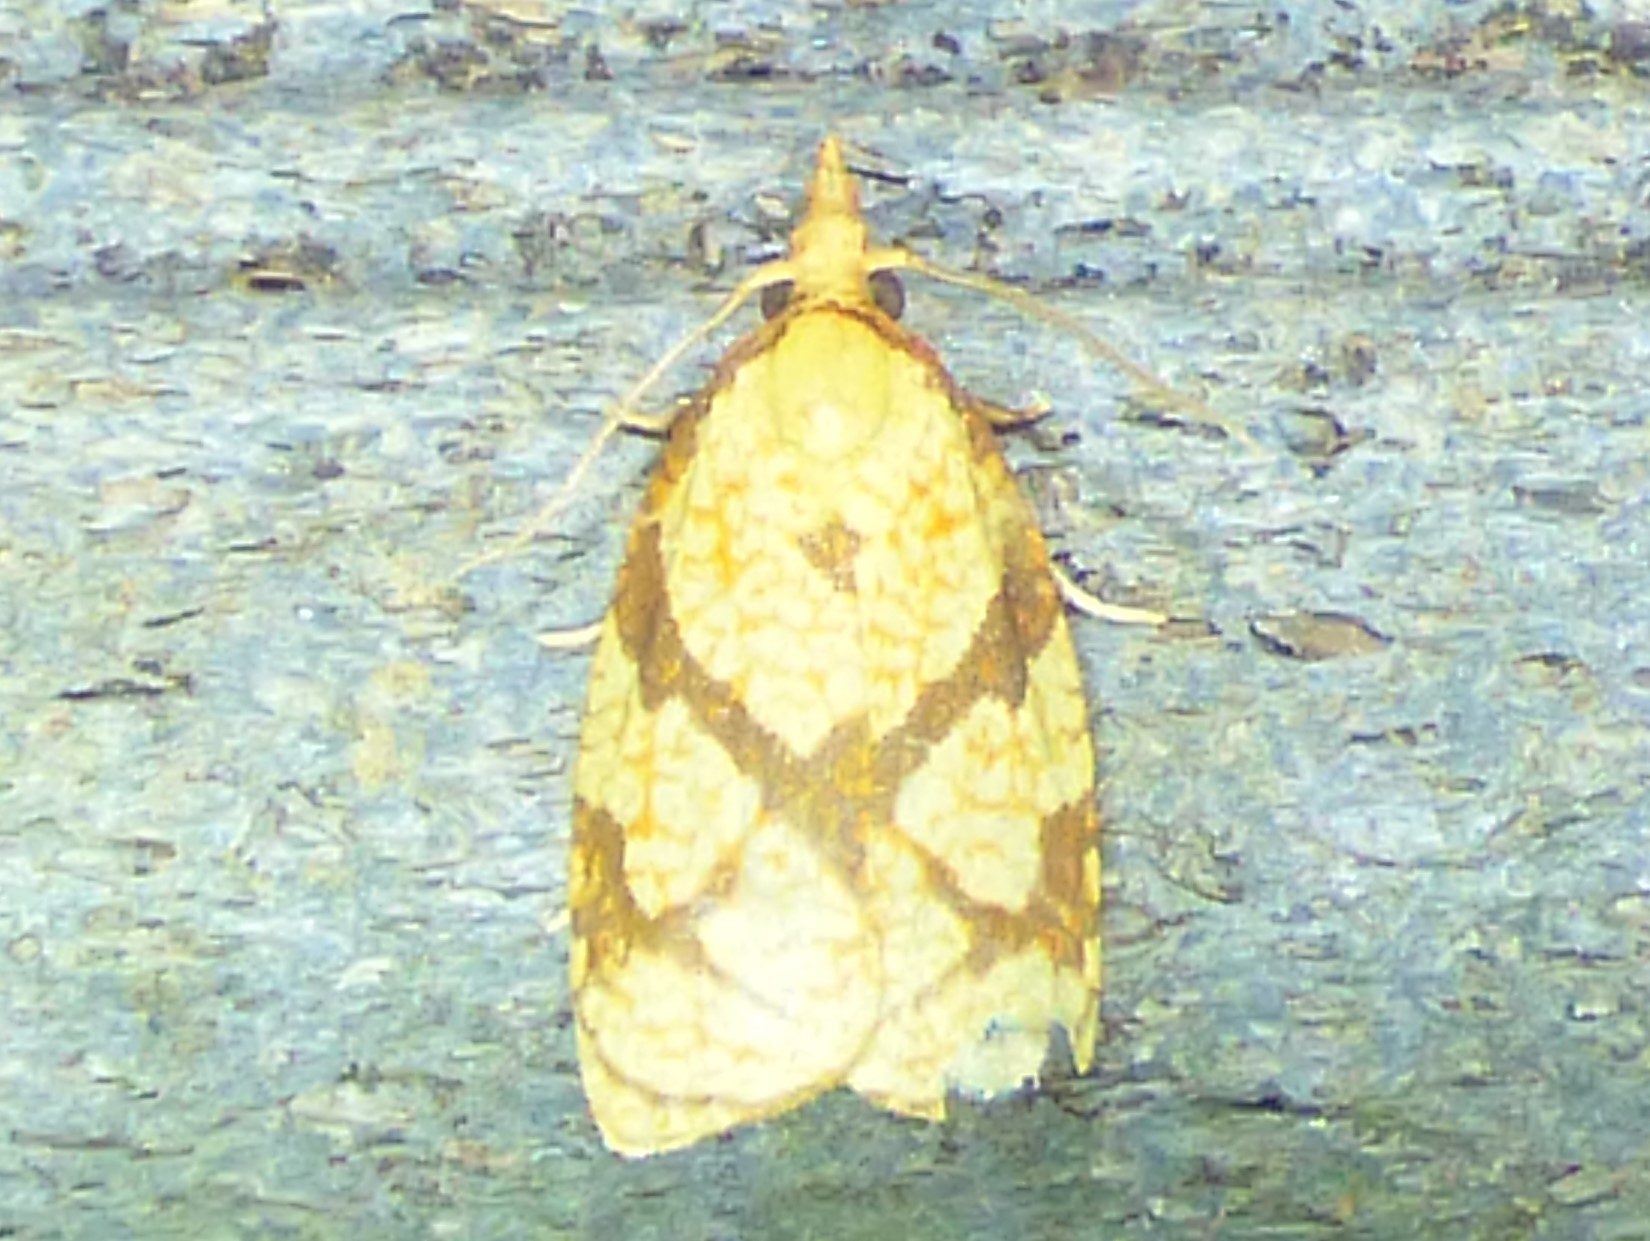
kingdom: Animalia
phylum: Arthropoda
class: Insecta
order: Lepidoptera
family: Tortricidae
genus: Cenopis
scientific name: Cenopis reticulatana
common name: Reticulated fruitworm moth
